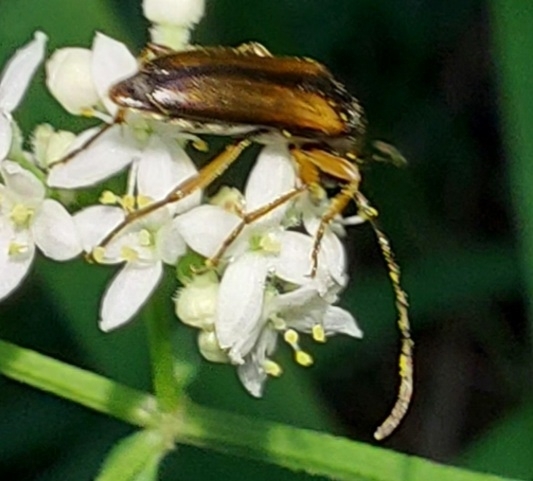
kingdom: Animalia
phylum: Arthropoda
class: Insecta
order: Coleoptera
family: Cerambycidae
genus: Alosterna
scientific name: Alosterna tabacicolor
